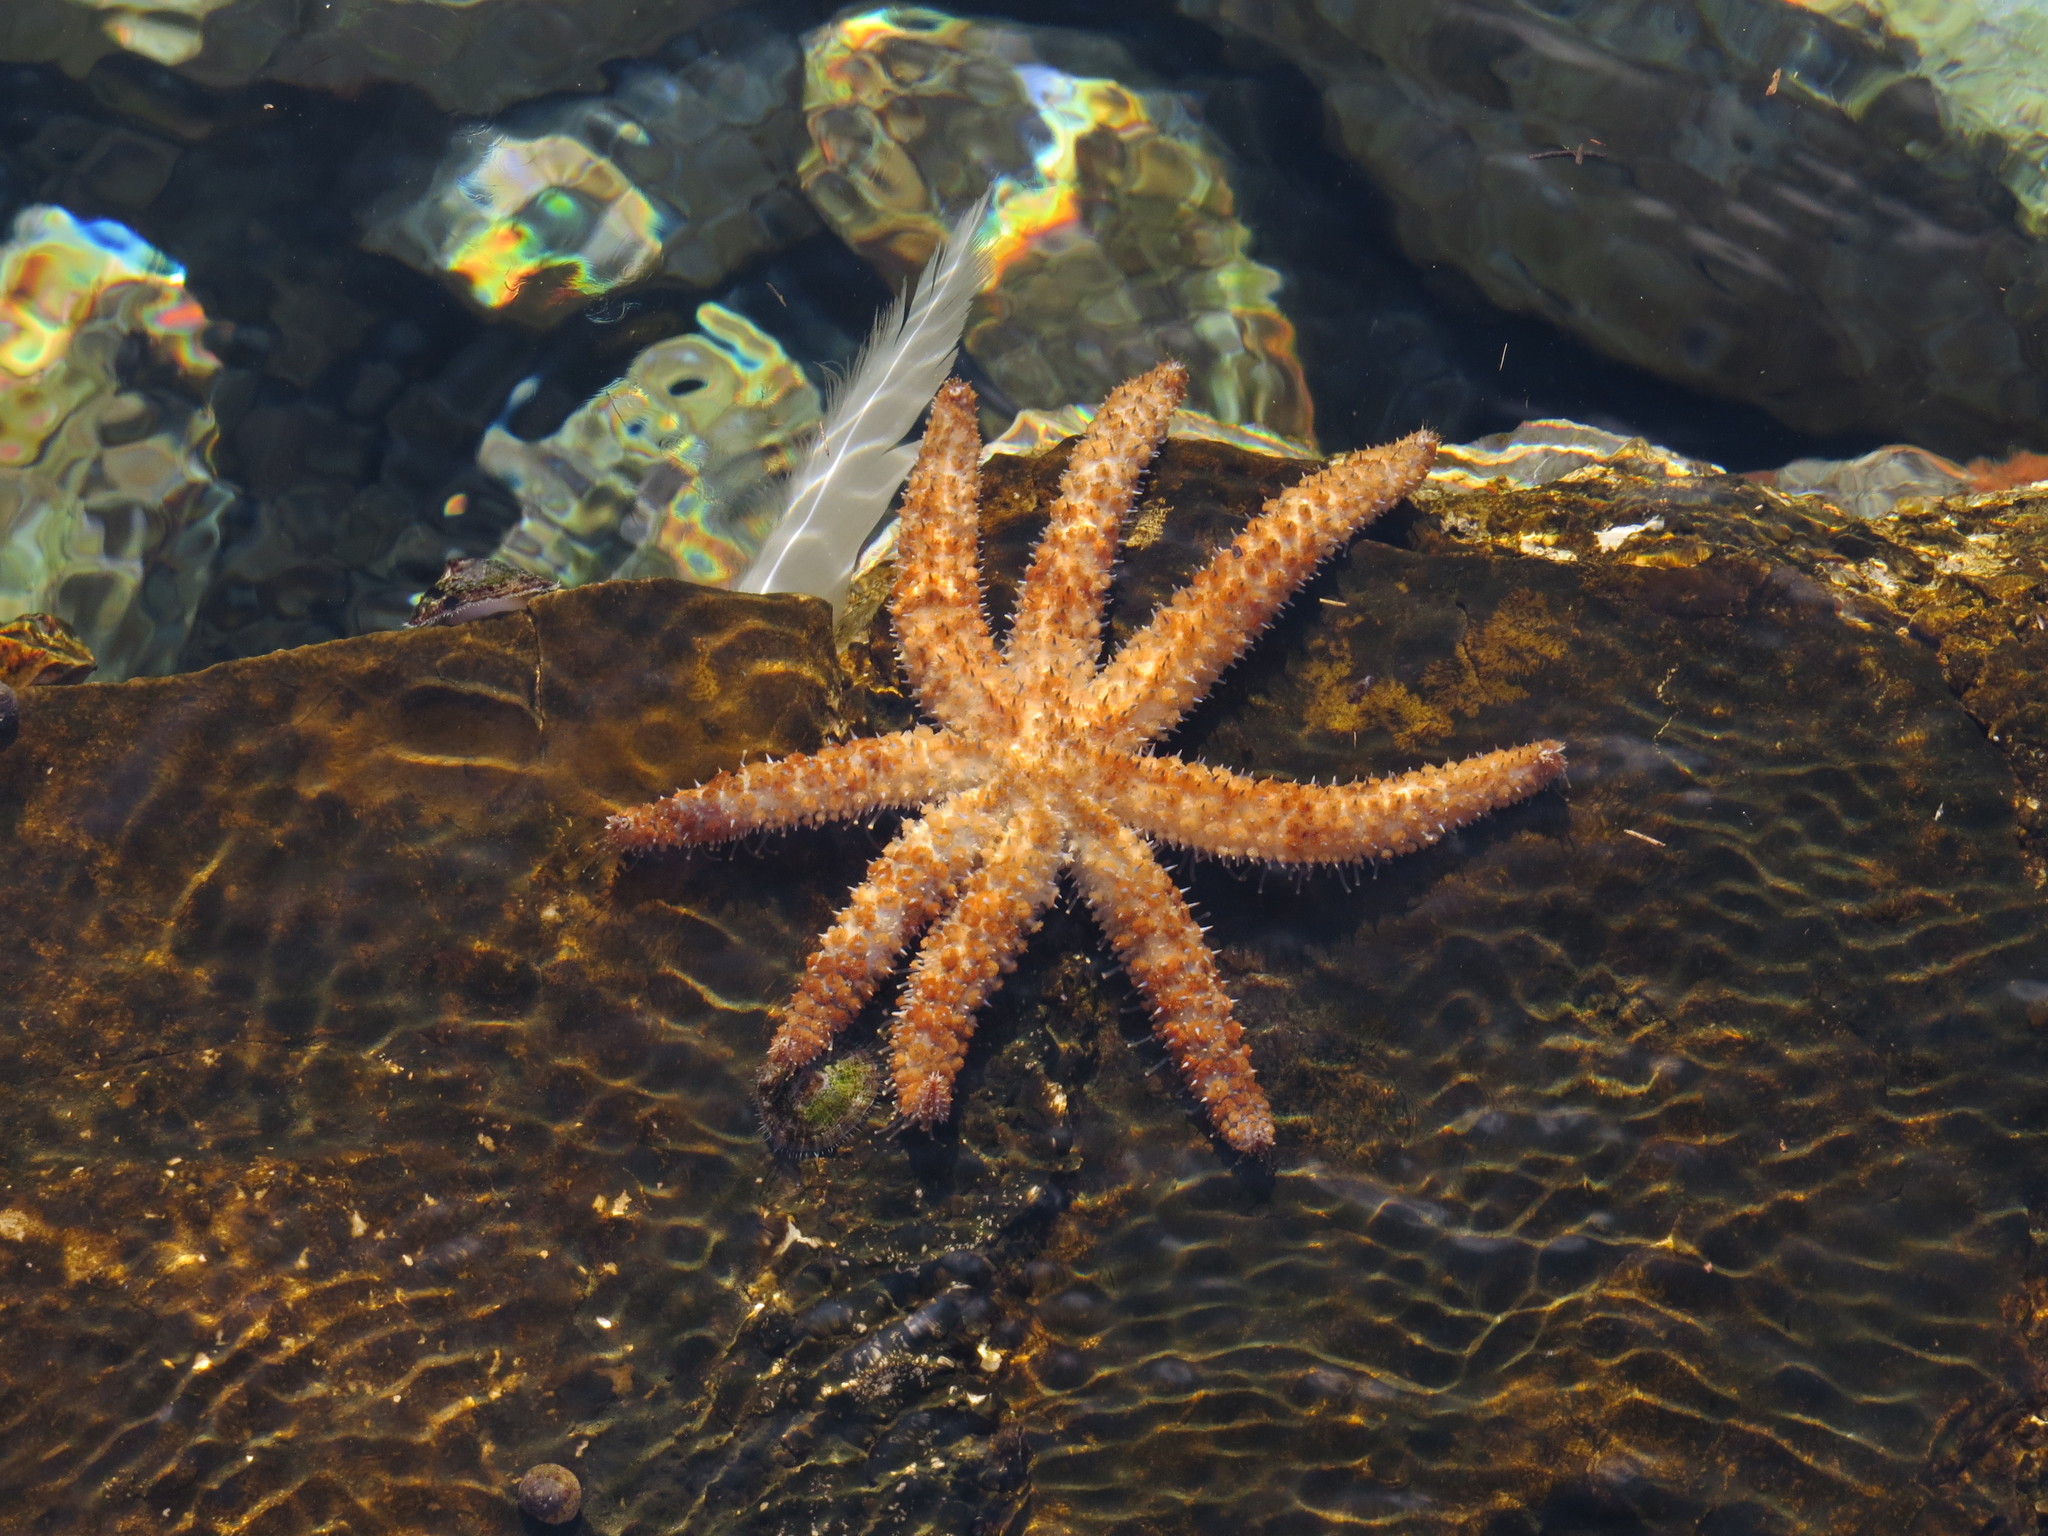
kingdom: Animalia
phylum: Echinodermata
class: Asteroidea
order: Forcipulatida
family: Asteriidae
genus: Coscinasterias
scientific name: Coscinasterias tenuispina
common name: Blue spiny starfish
